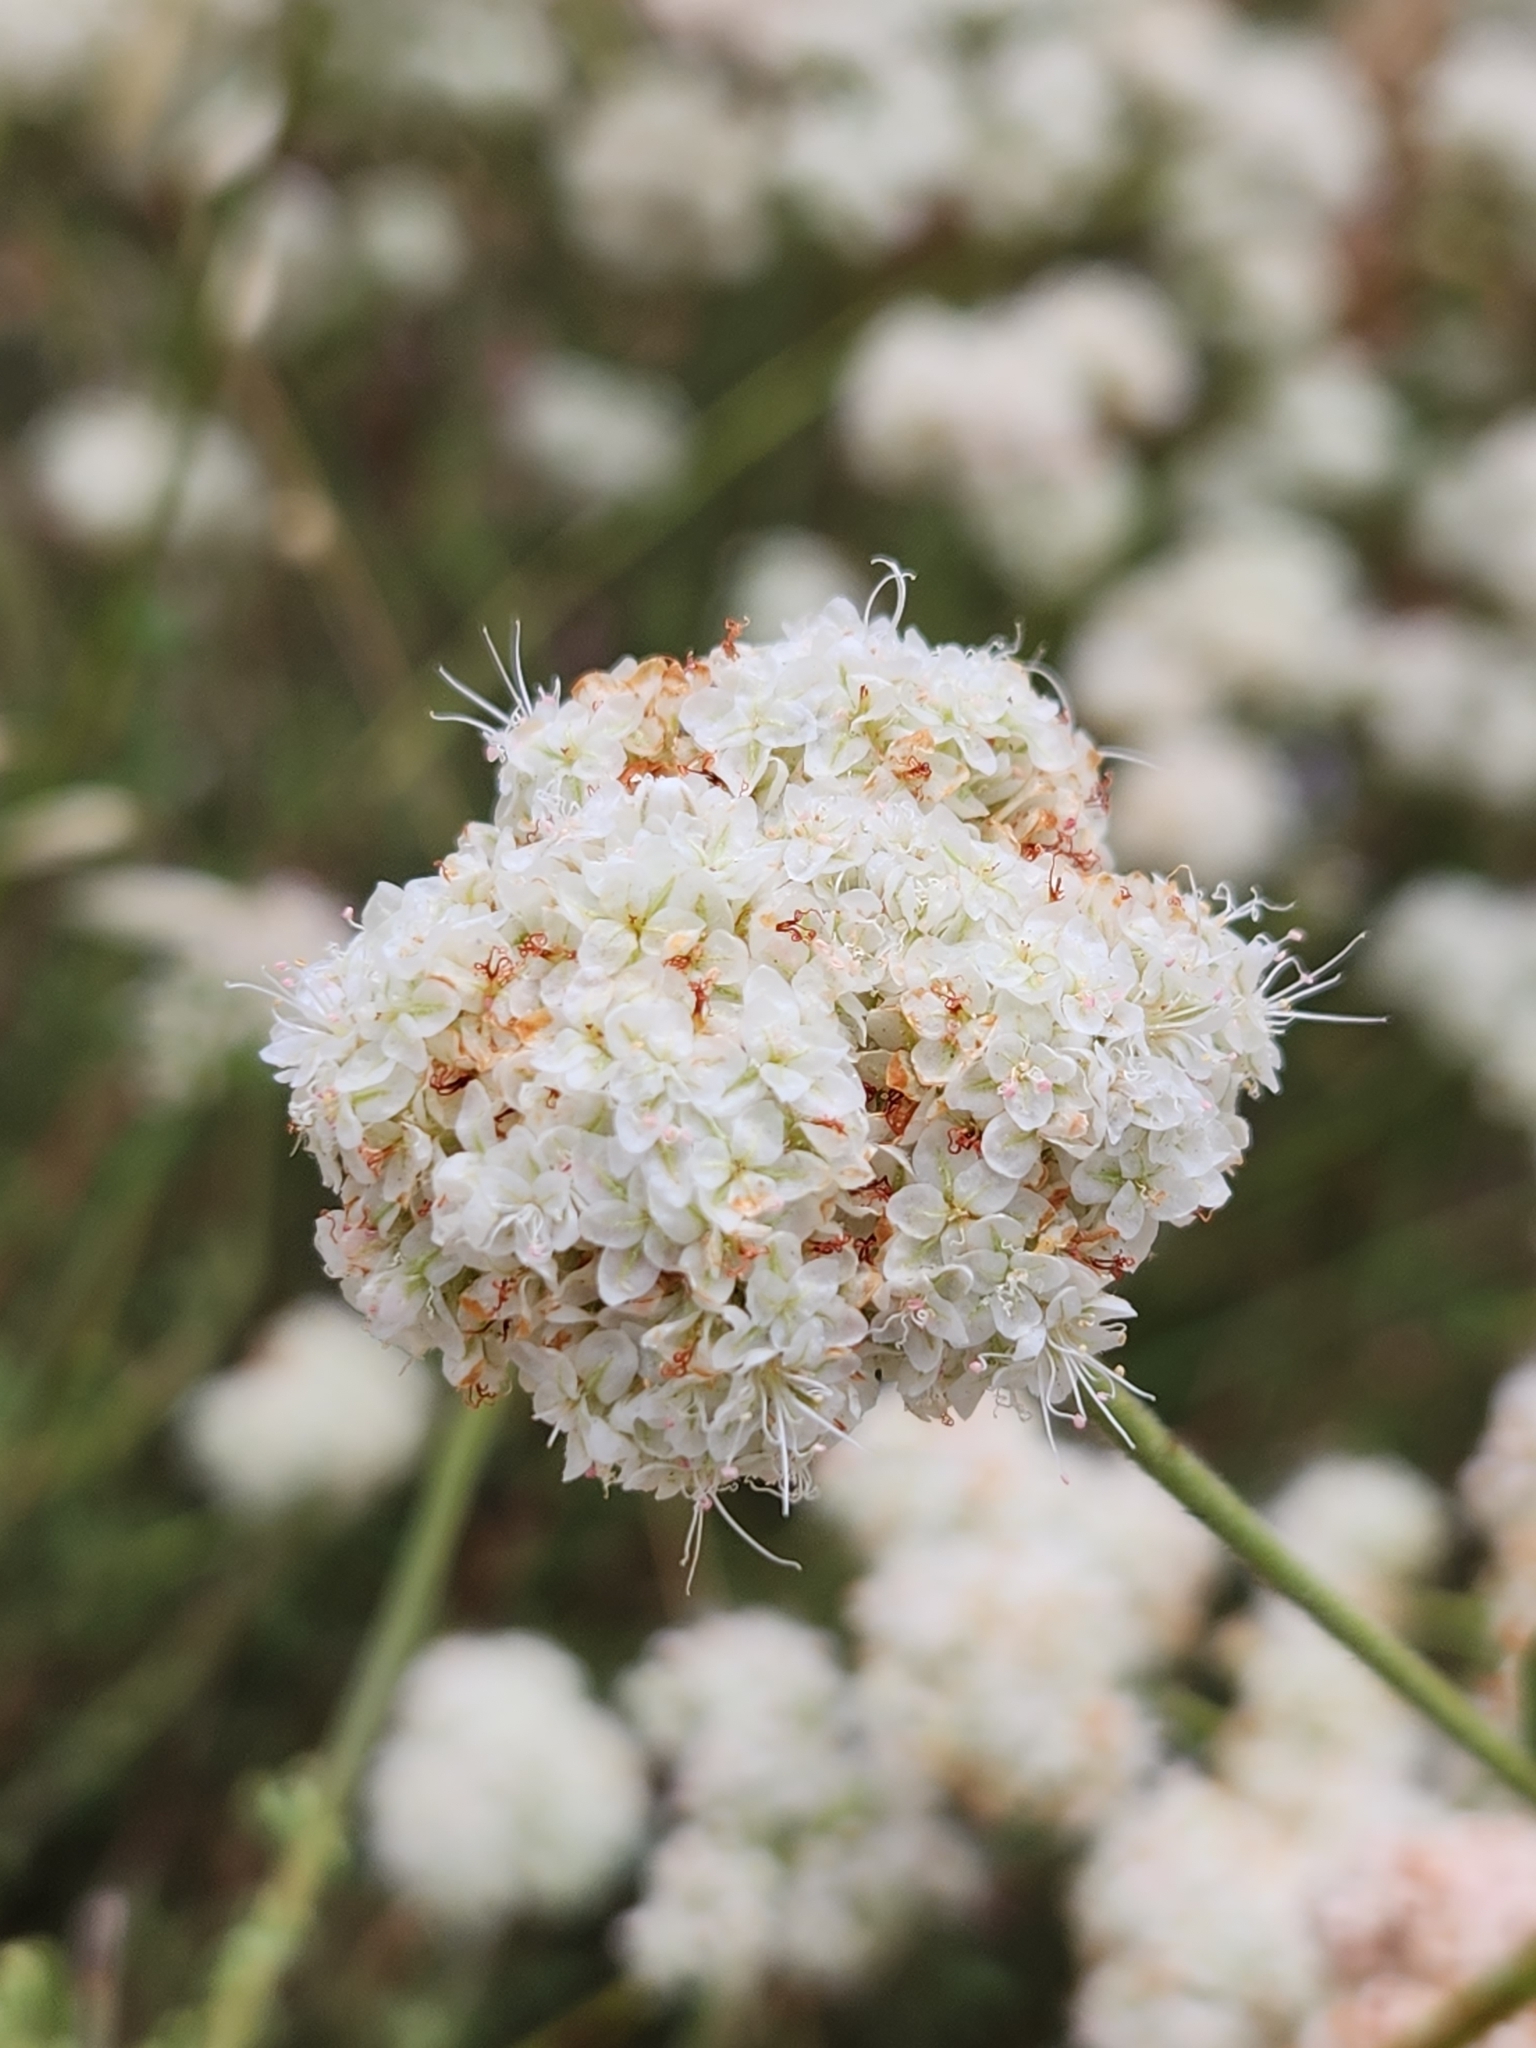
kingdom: Plantae
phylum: Tracheophyta
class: Magnoliopsida
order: Caryophyllales
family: Polygonaceae
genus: Eriogonum
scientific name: Eriogonum fasciculatum
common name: California wild buckwheat
